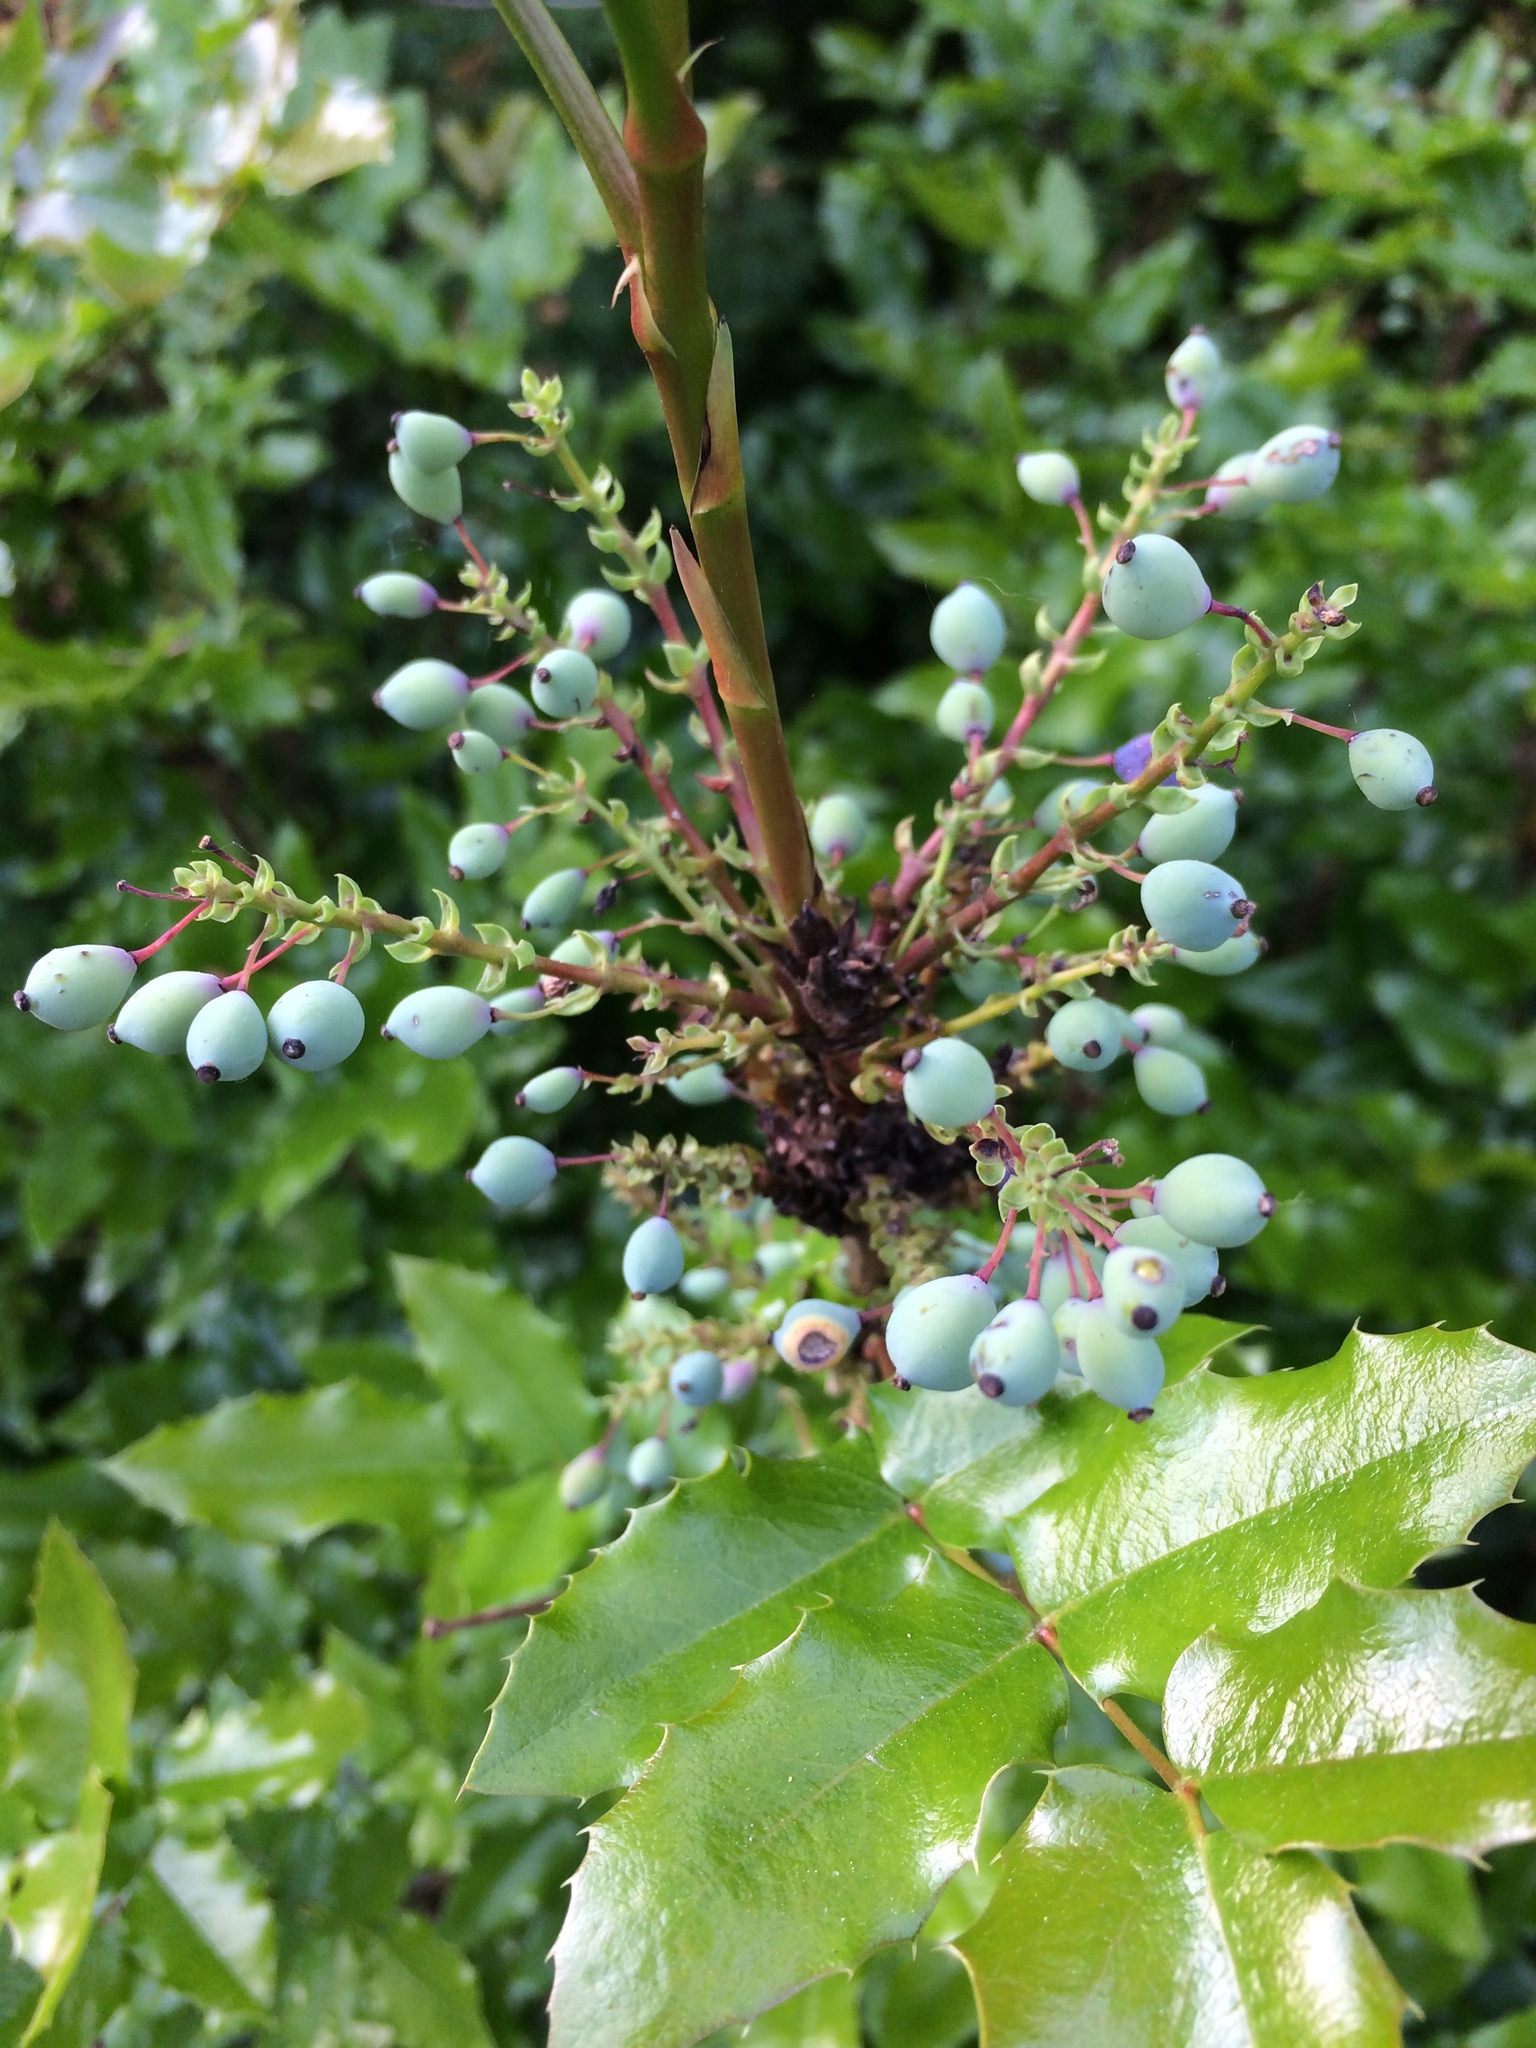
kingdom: Plantae
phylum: Tracheophyta
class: Magnoliopsida
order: Ranunculales
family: Berberidaceae
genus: Mahonia
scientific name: Mahonia aquifolium
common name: Oregon-grape
